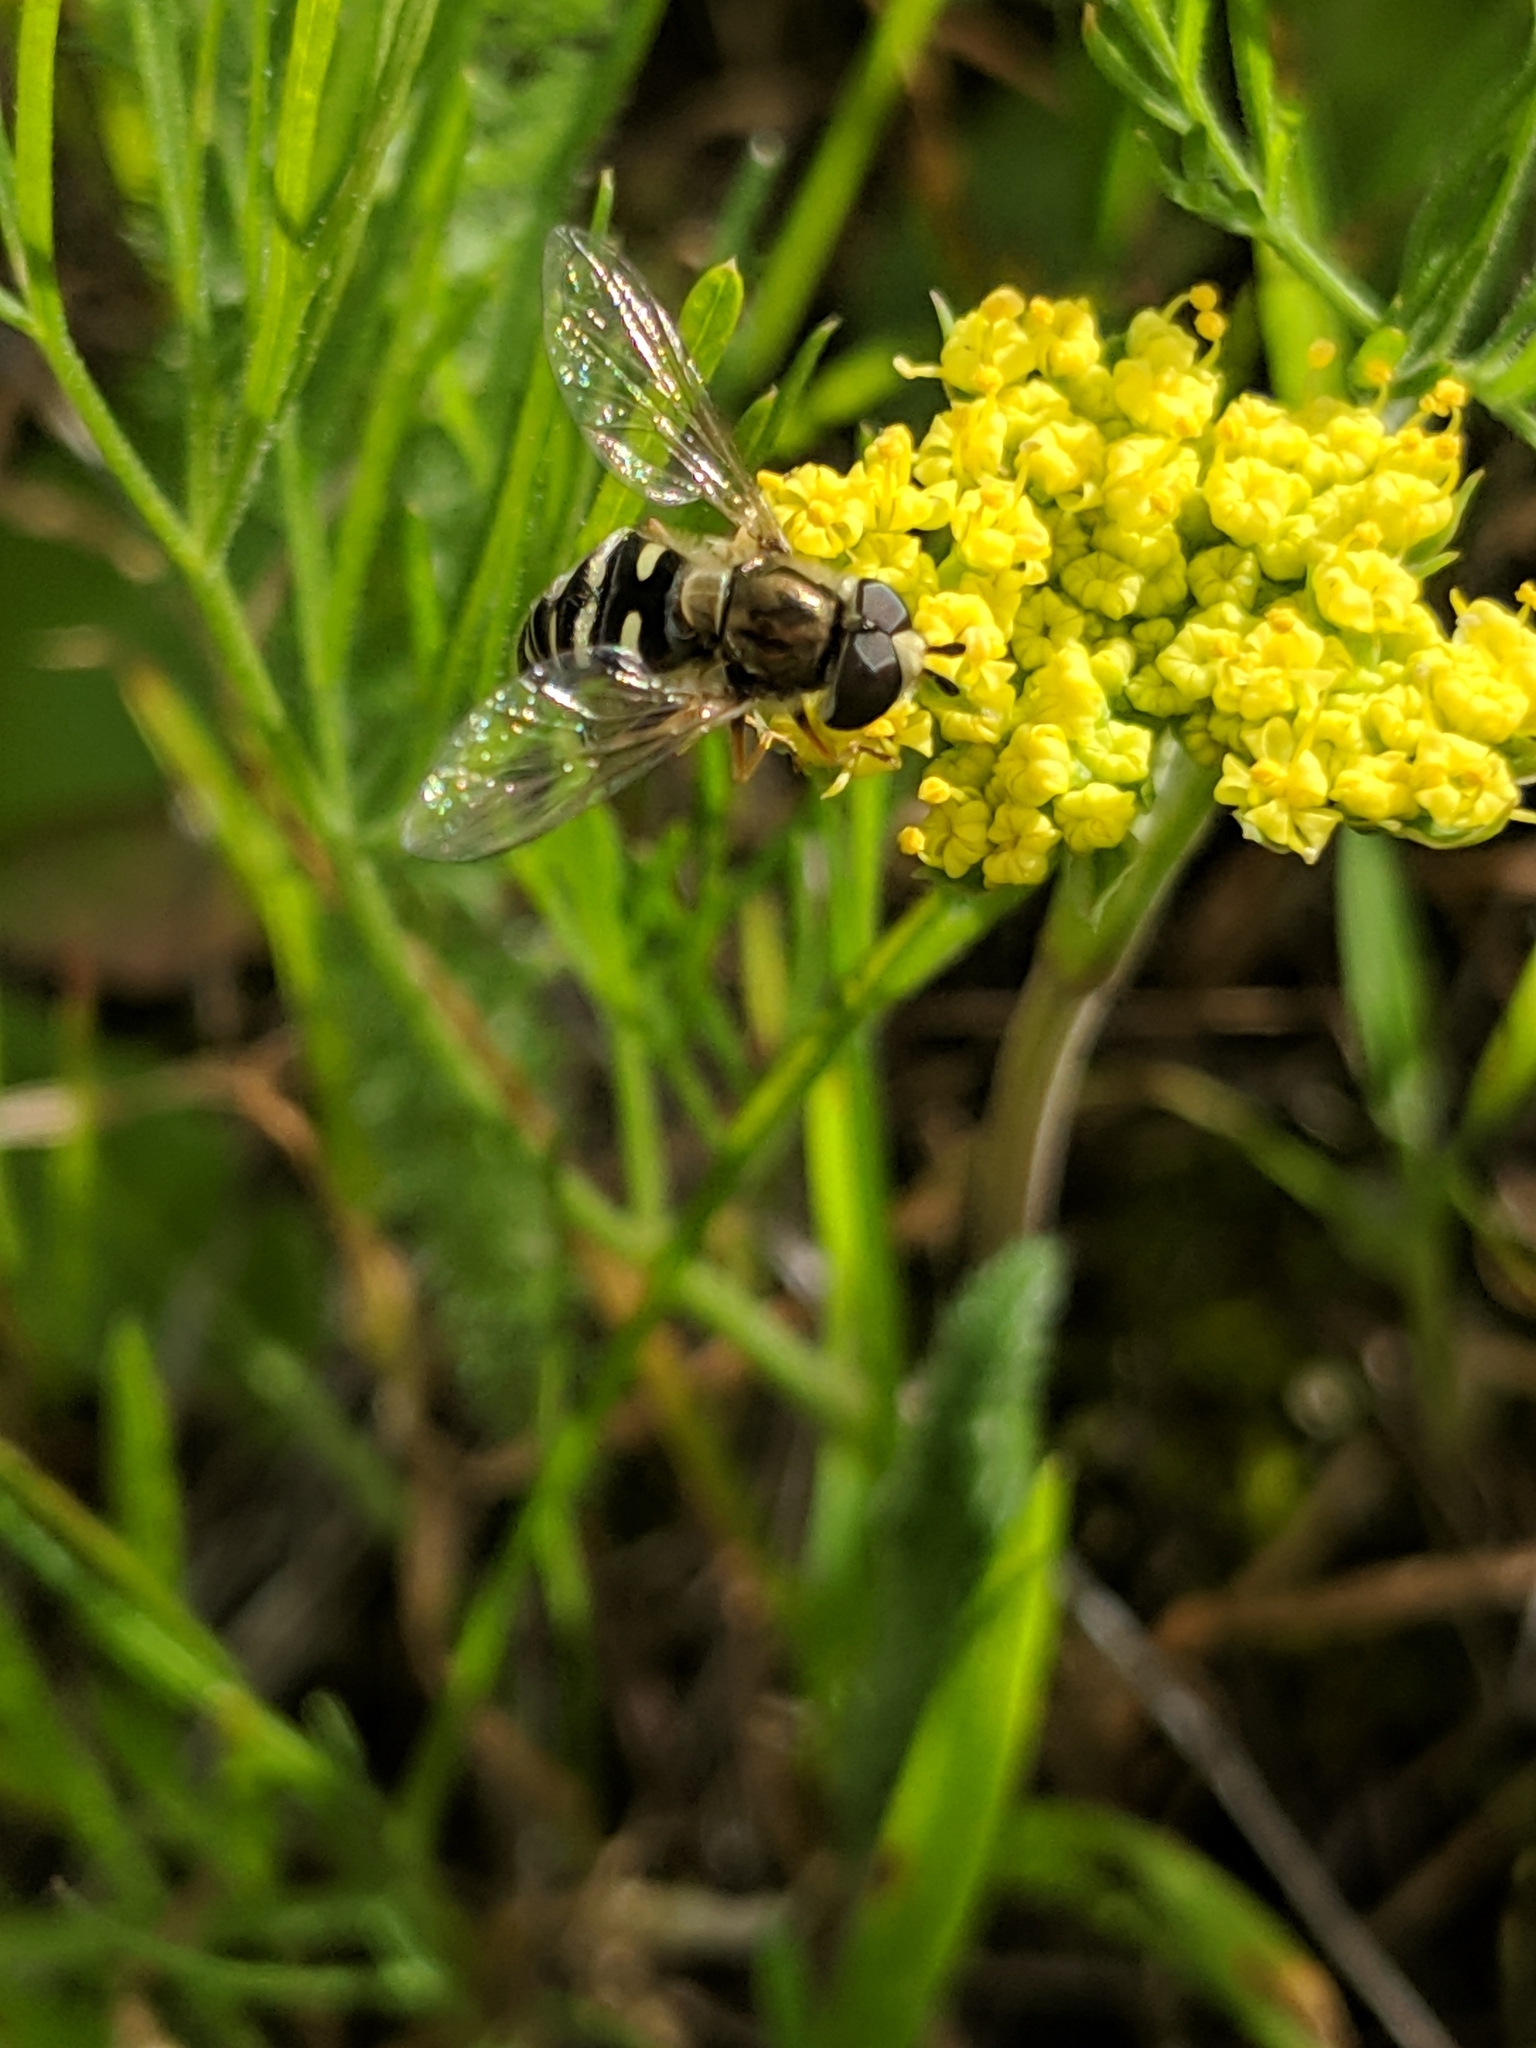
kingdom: Animalia
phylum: Arthropoda
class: Insecta
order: Diptera
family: Syrphidae
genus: Eupeodes
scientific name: Eupeodes volucris
